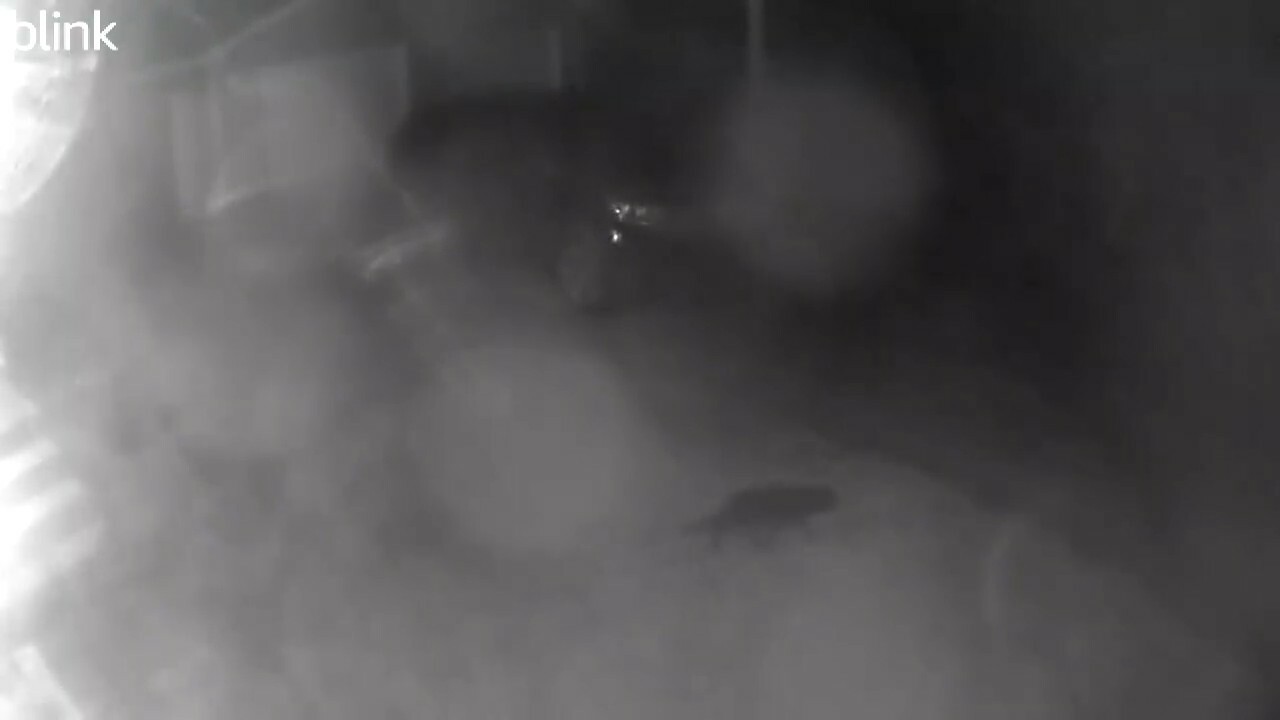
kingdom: Animalia
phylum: Chordata
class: Mammalia
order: Carnivora
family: Felidae
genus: Felis
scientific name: Felis catus
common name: Domestic cat
